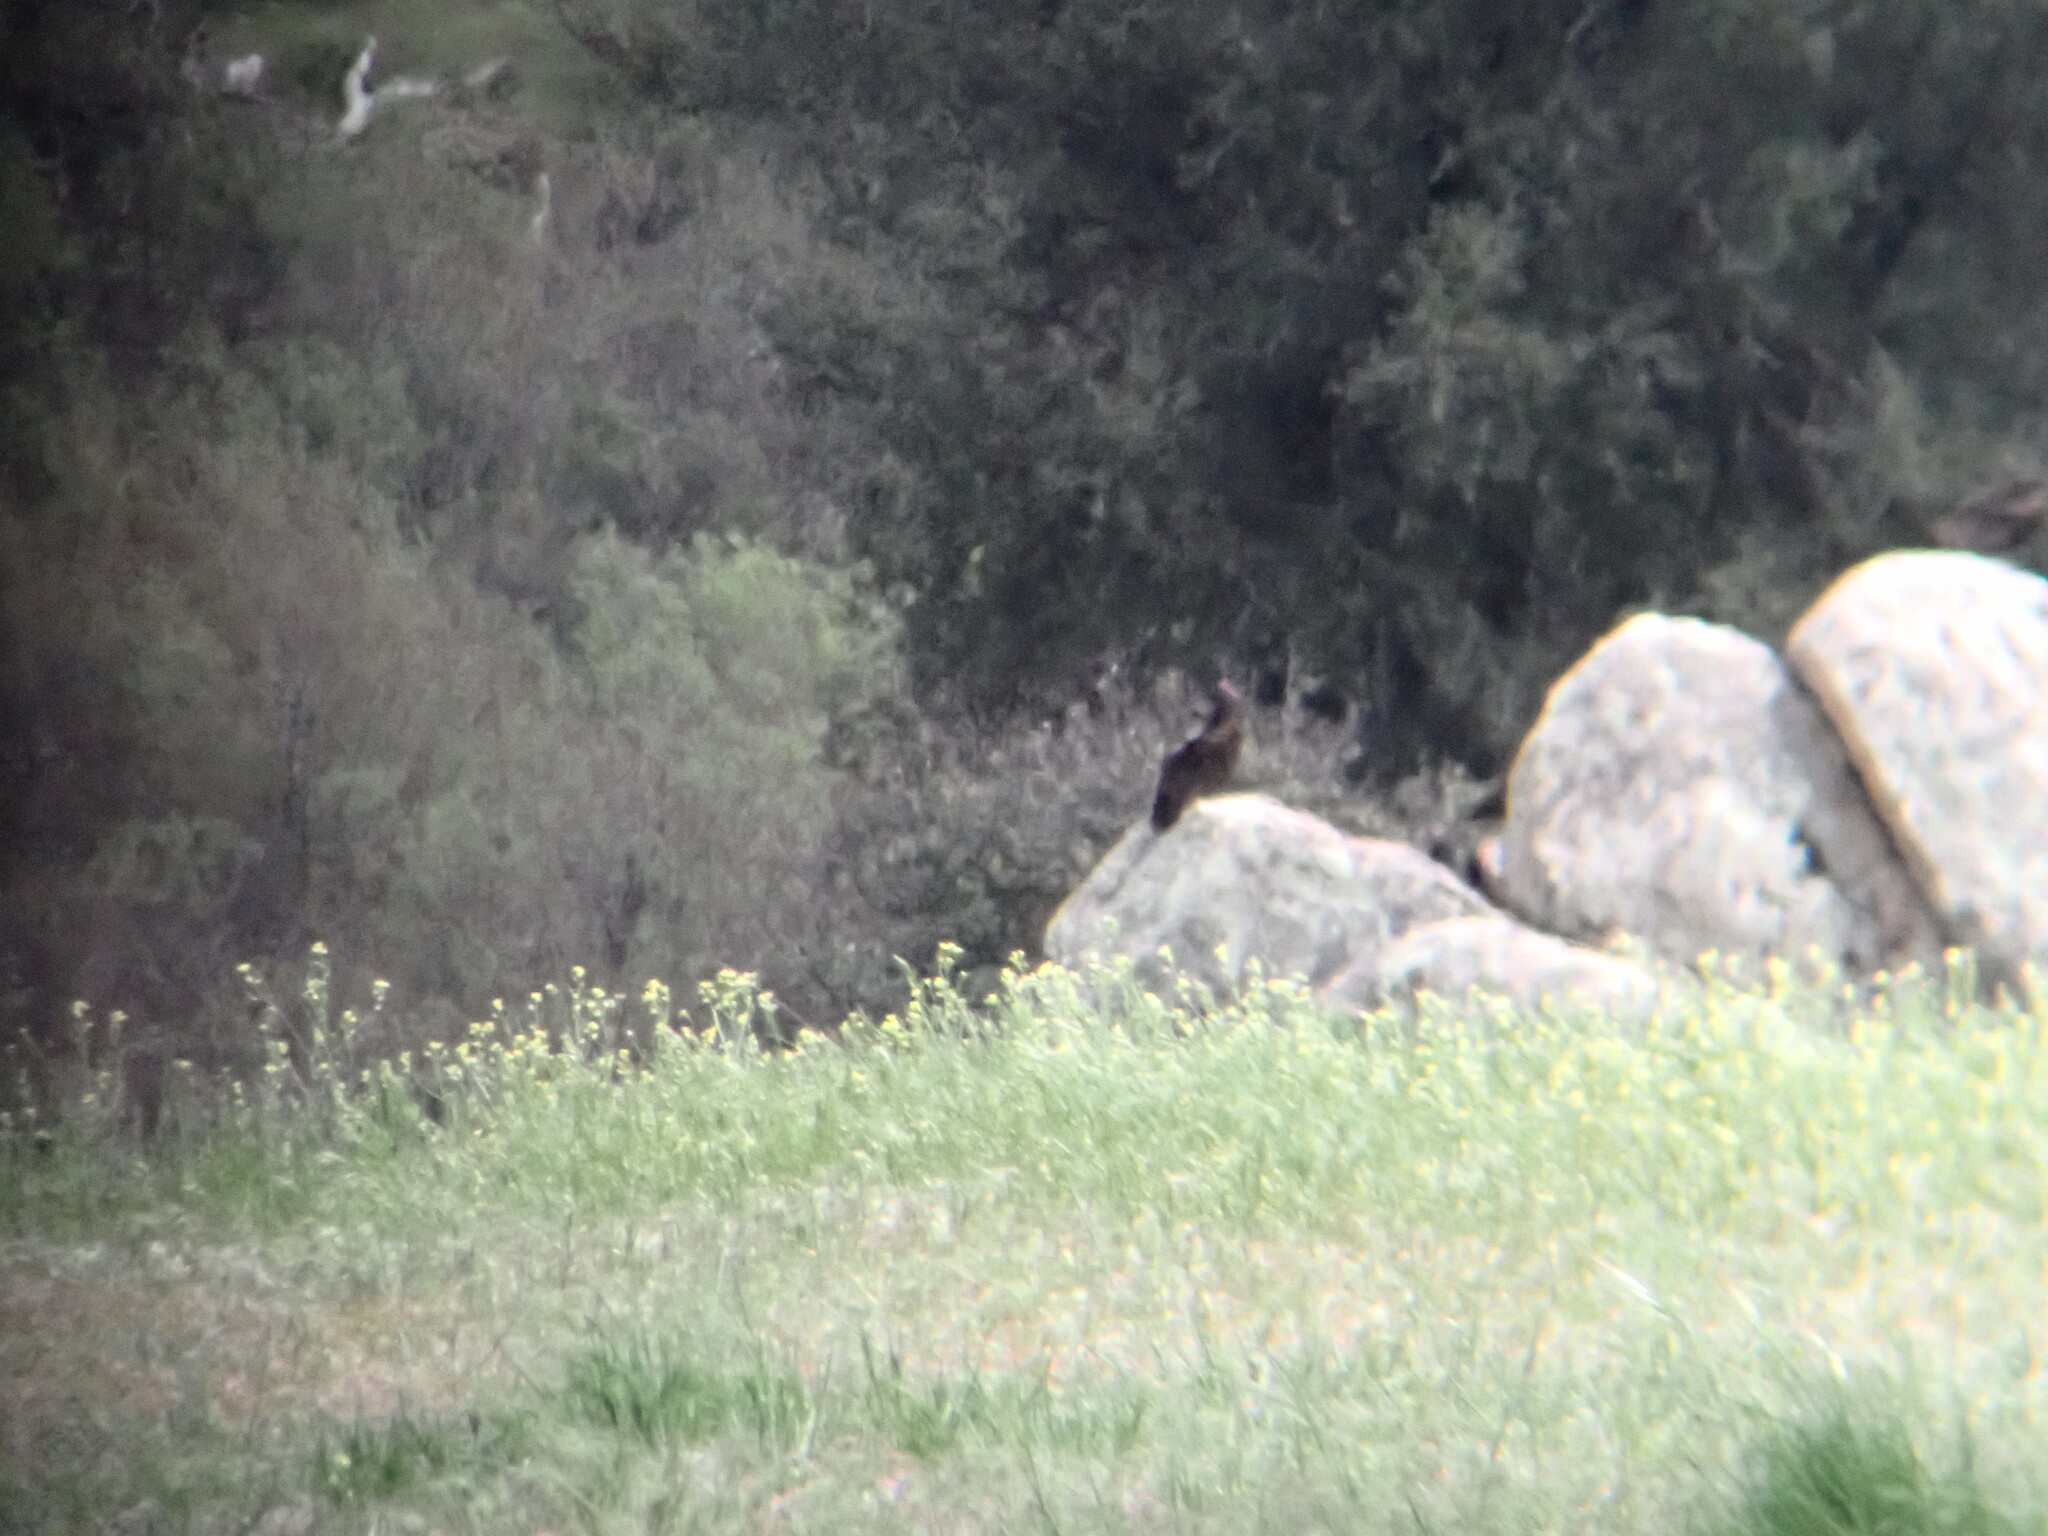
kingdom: Animalia
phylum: Chordata
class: Aves
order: Accipitriformes
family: Cathartidae
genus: Cathartes
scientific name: Cathartes aura
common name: Turkey vulture
